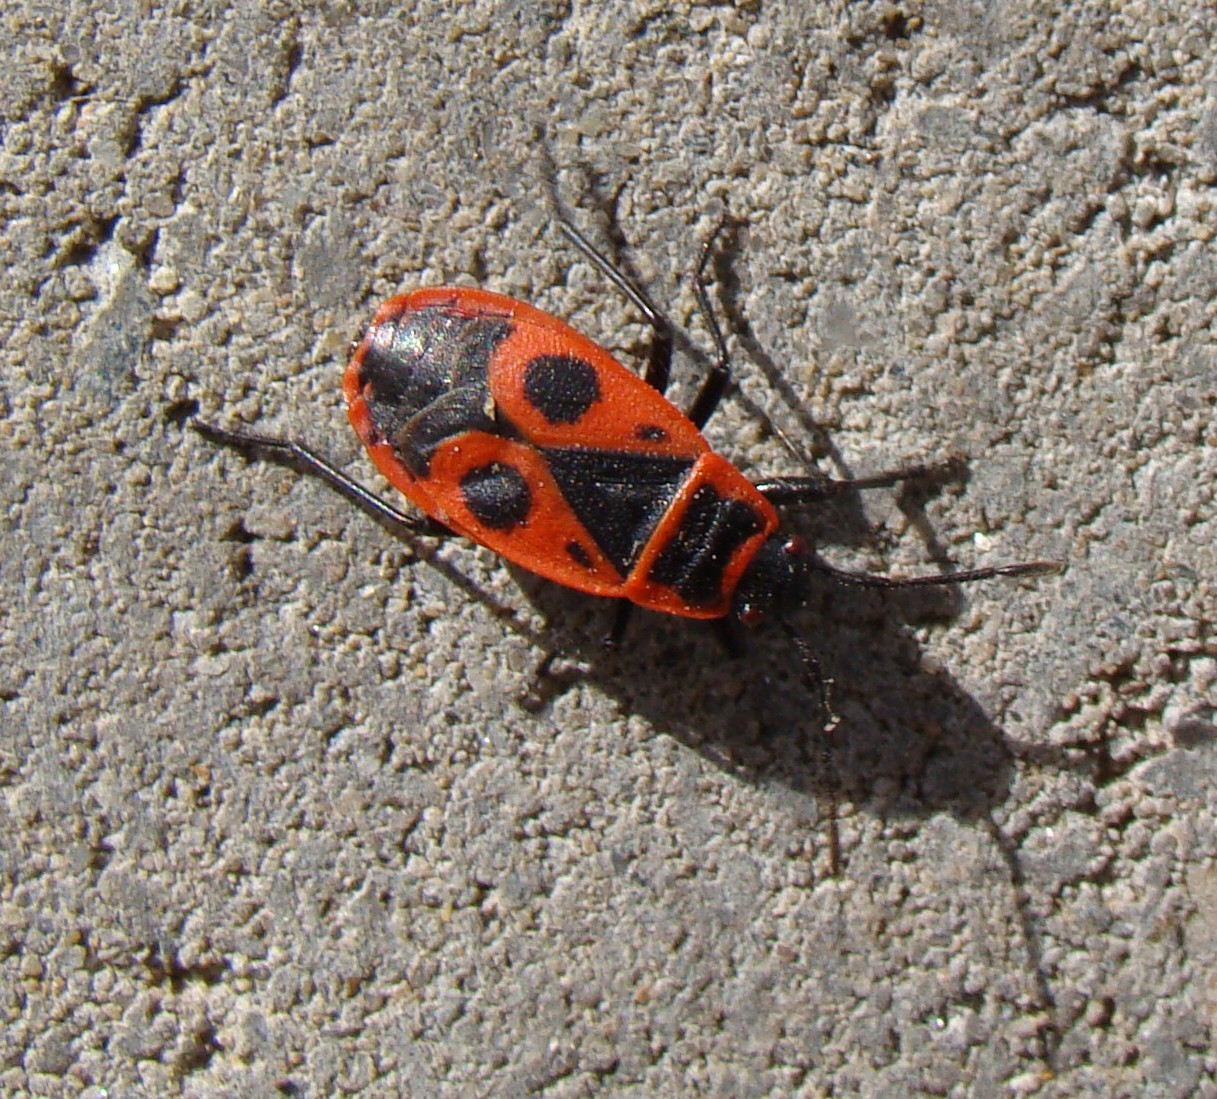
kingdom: Animalia
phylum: Arthropoda
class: Insecta
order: Hemiptera
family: Pyrrhocoridae
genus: Pyrrhocoris
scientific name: Pyrrhocoris apterus
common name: Firebug
